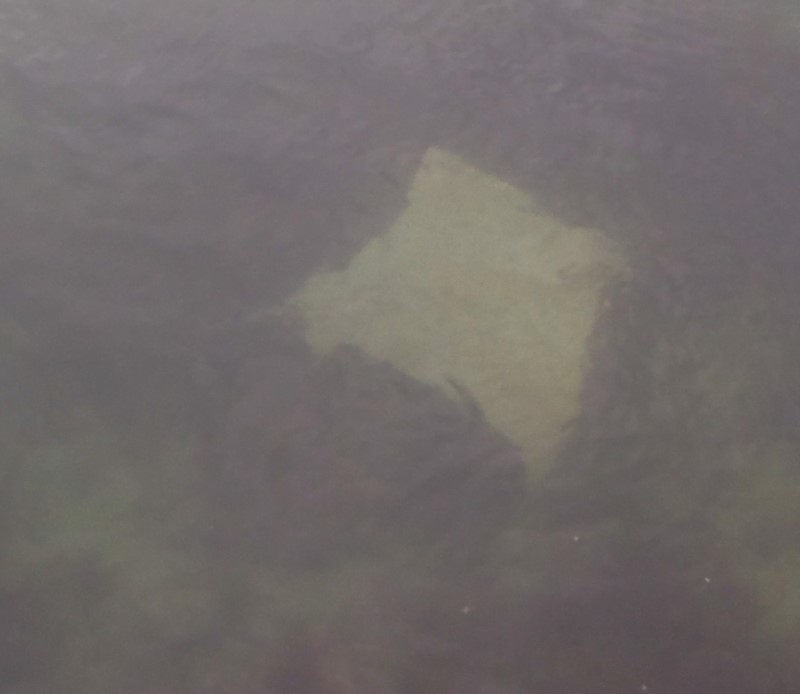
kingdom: Animalia
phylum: Chordata
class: Elasmobranchii
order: Myliobatiformes
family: Myliobatidae
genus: Myliobatis
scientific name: Myliobatis tenuicaudatus
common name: Eagle ray
